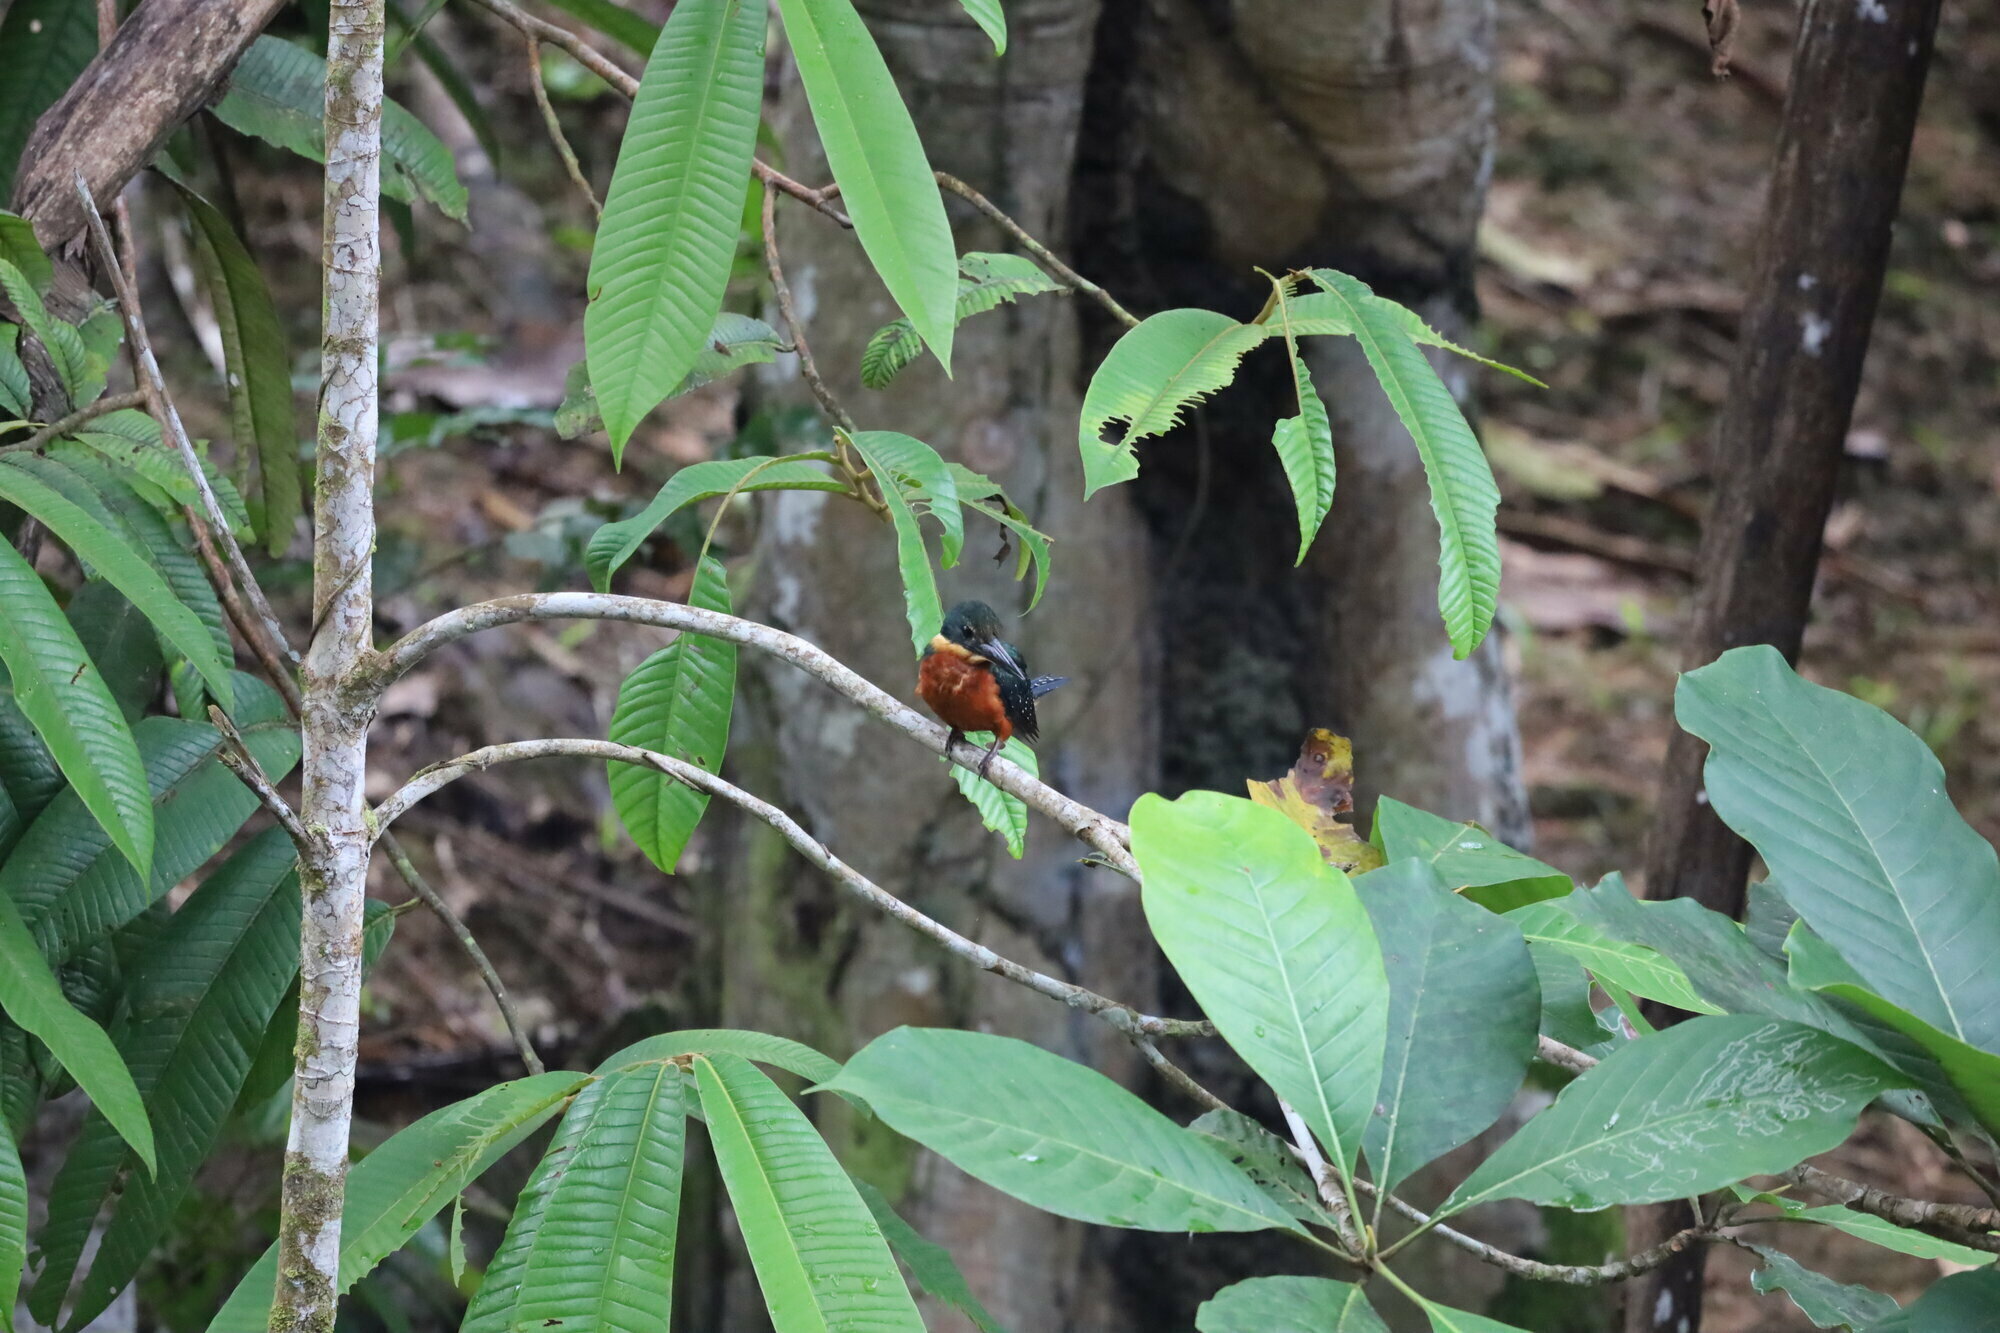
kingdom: Animalia
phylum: Chordata
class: Aves
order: Coraciiformes
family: Alcedinidae
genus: Chloroceryle
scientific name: Chloroceryle inda
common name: Green-and-rufous kingfisher
